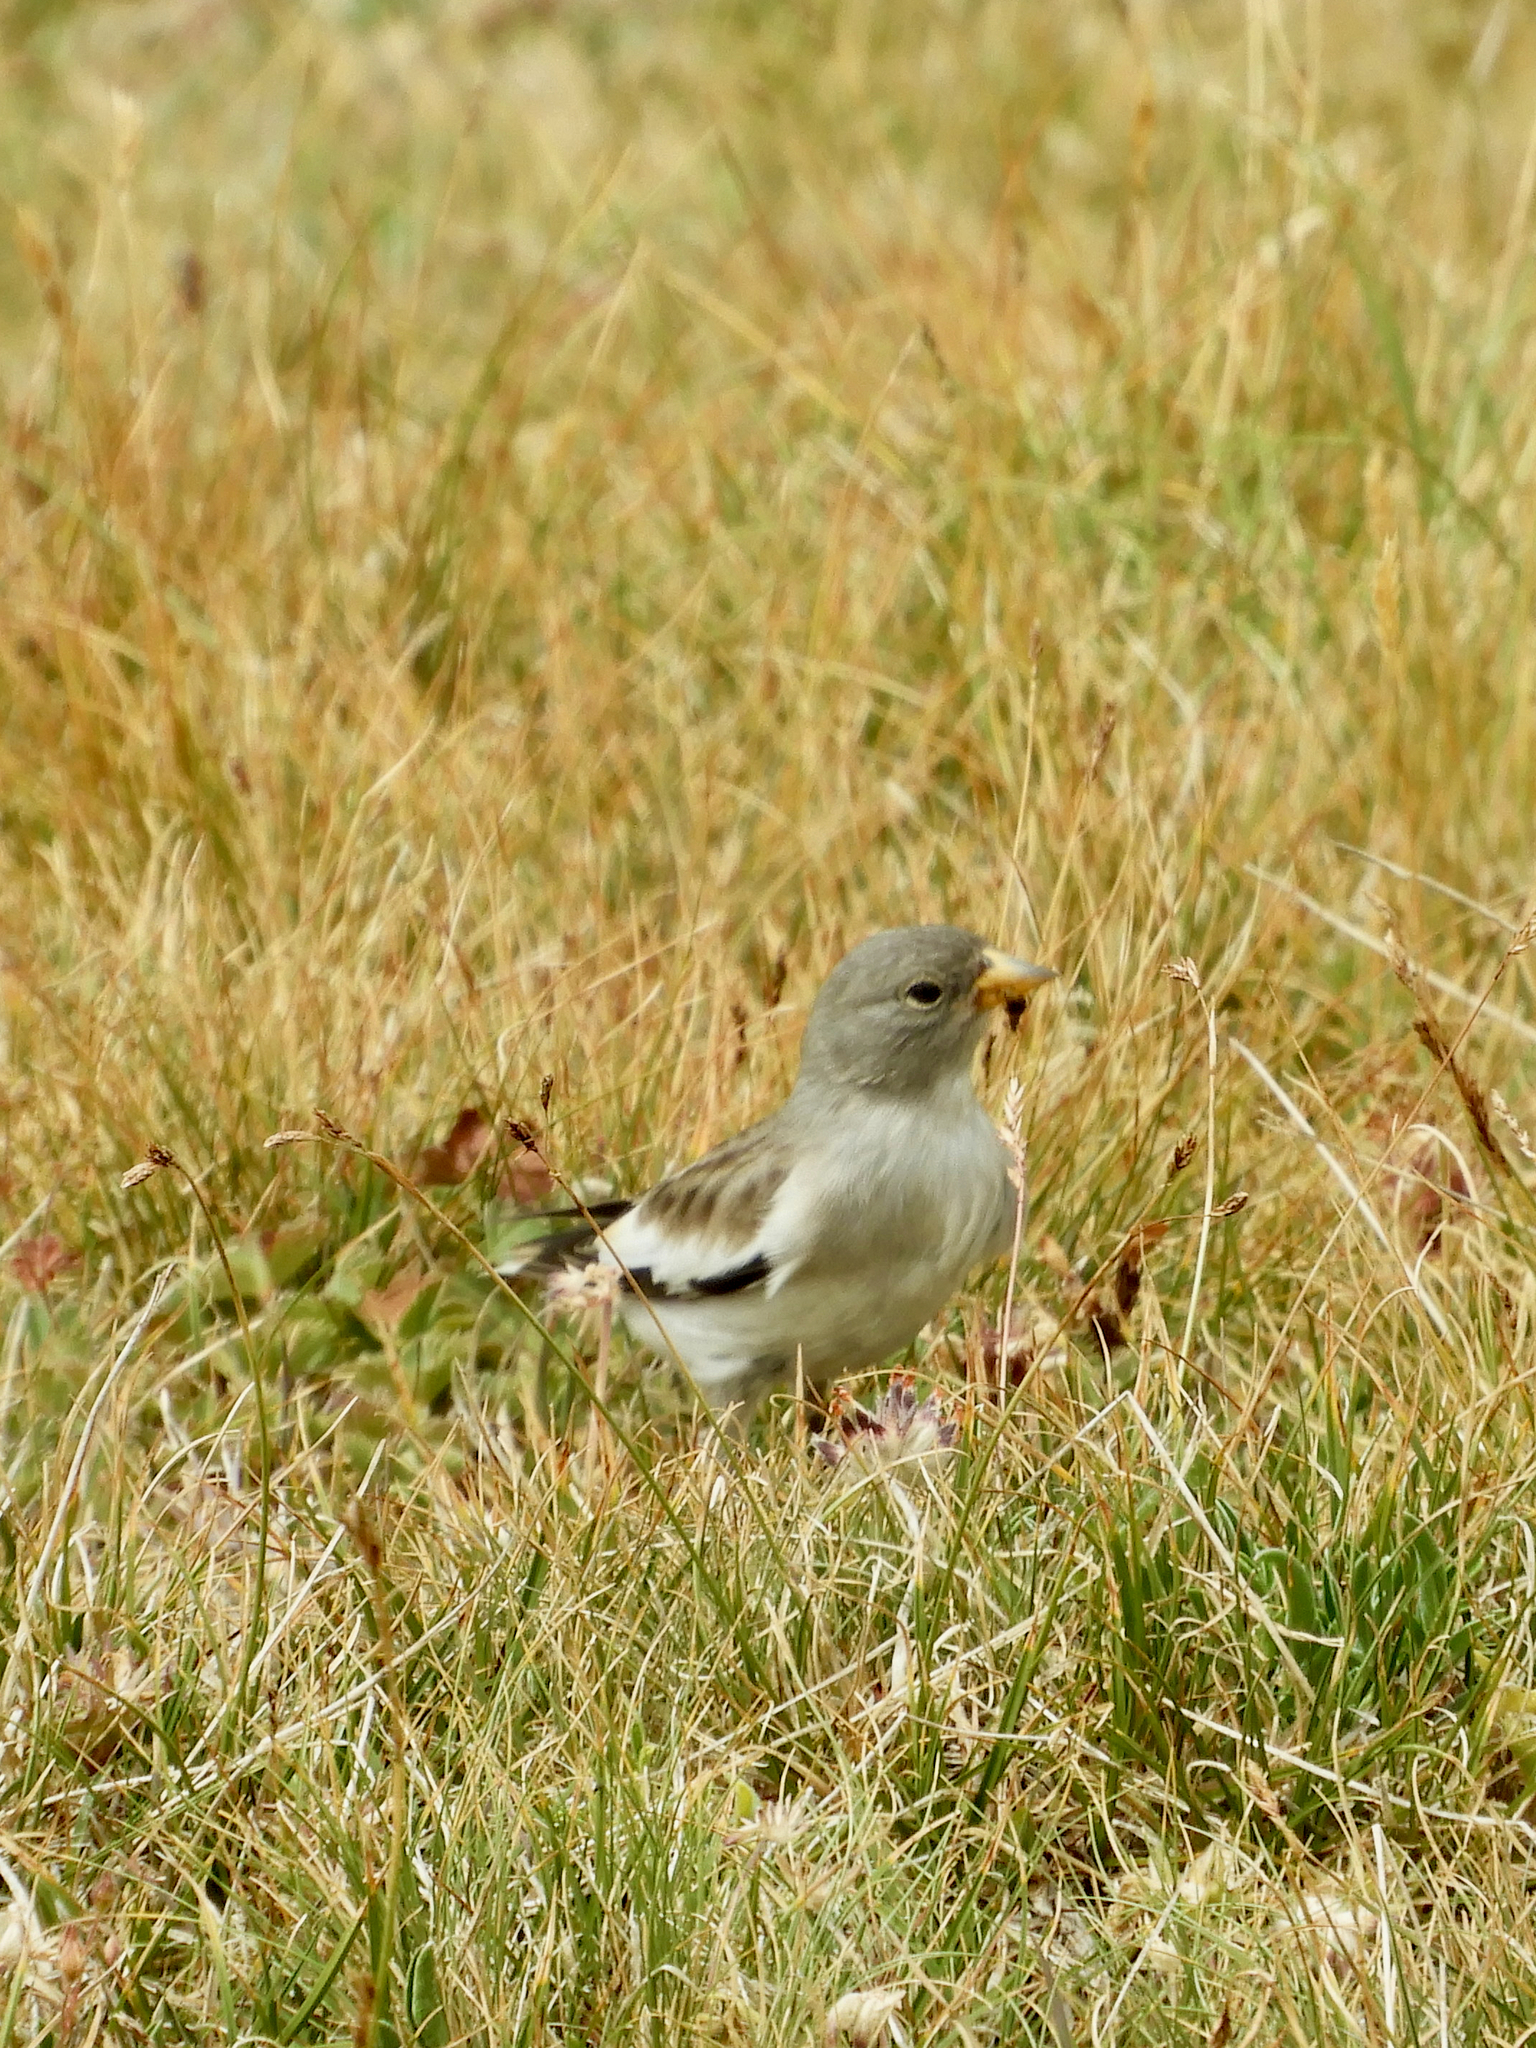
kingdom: Animalia
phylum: Chordata
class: Aves
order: Passeriformes
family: Passeridae
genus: Montifringilla
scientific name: Montifringilla nivalis
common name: White-winged snowfinch
